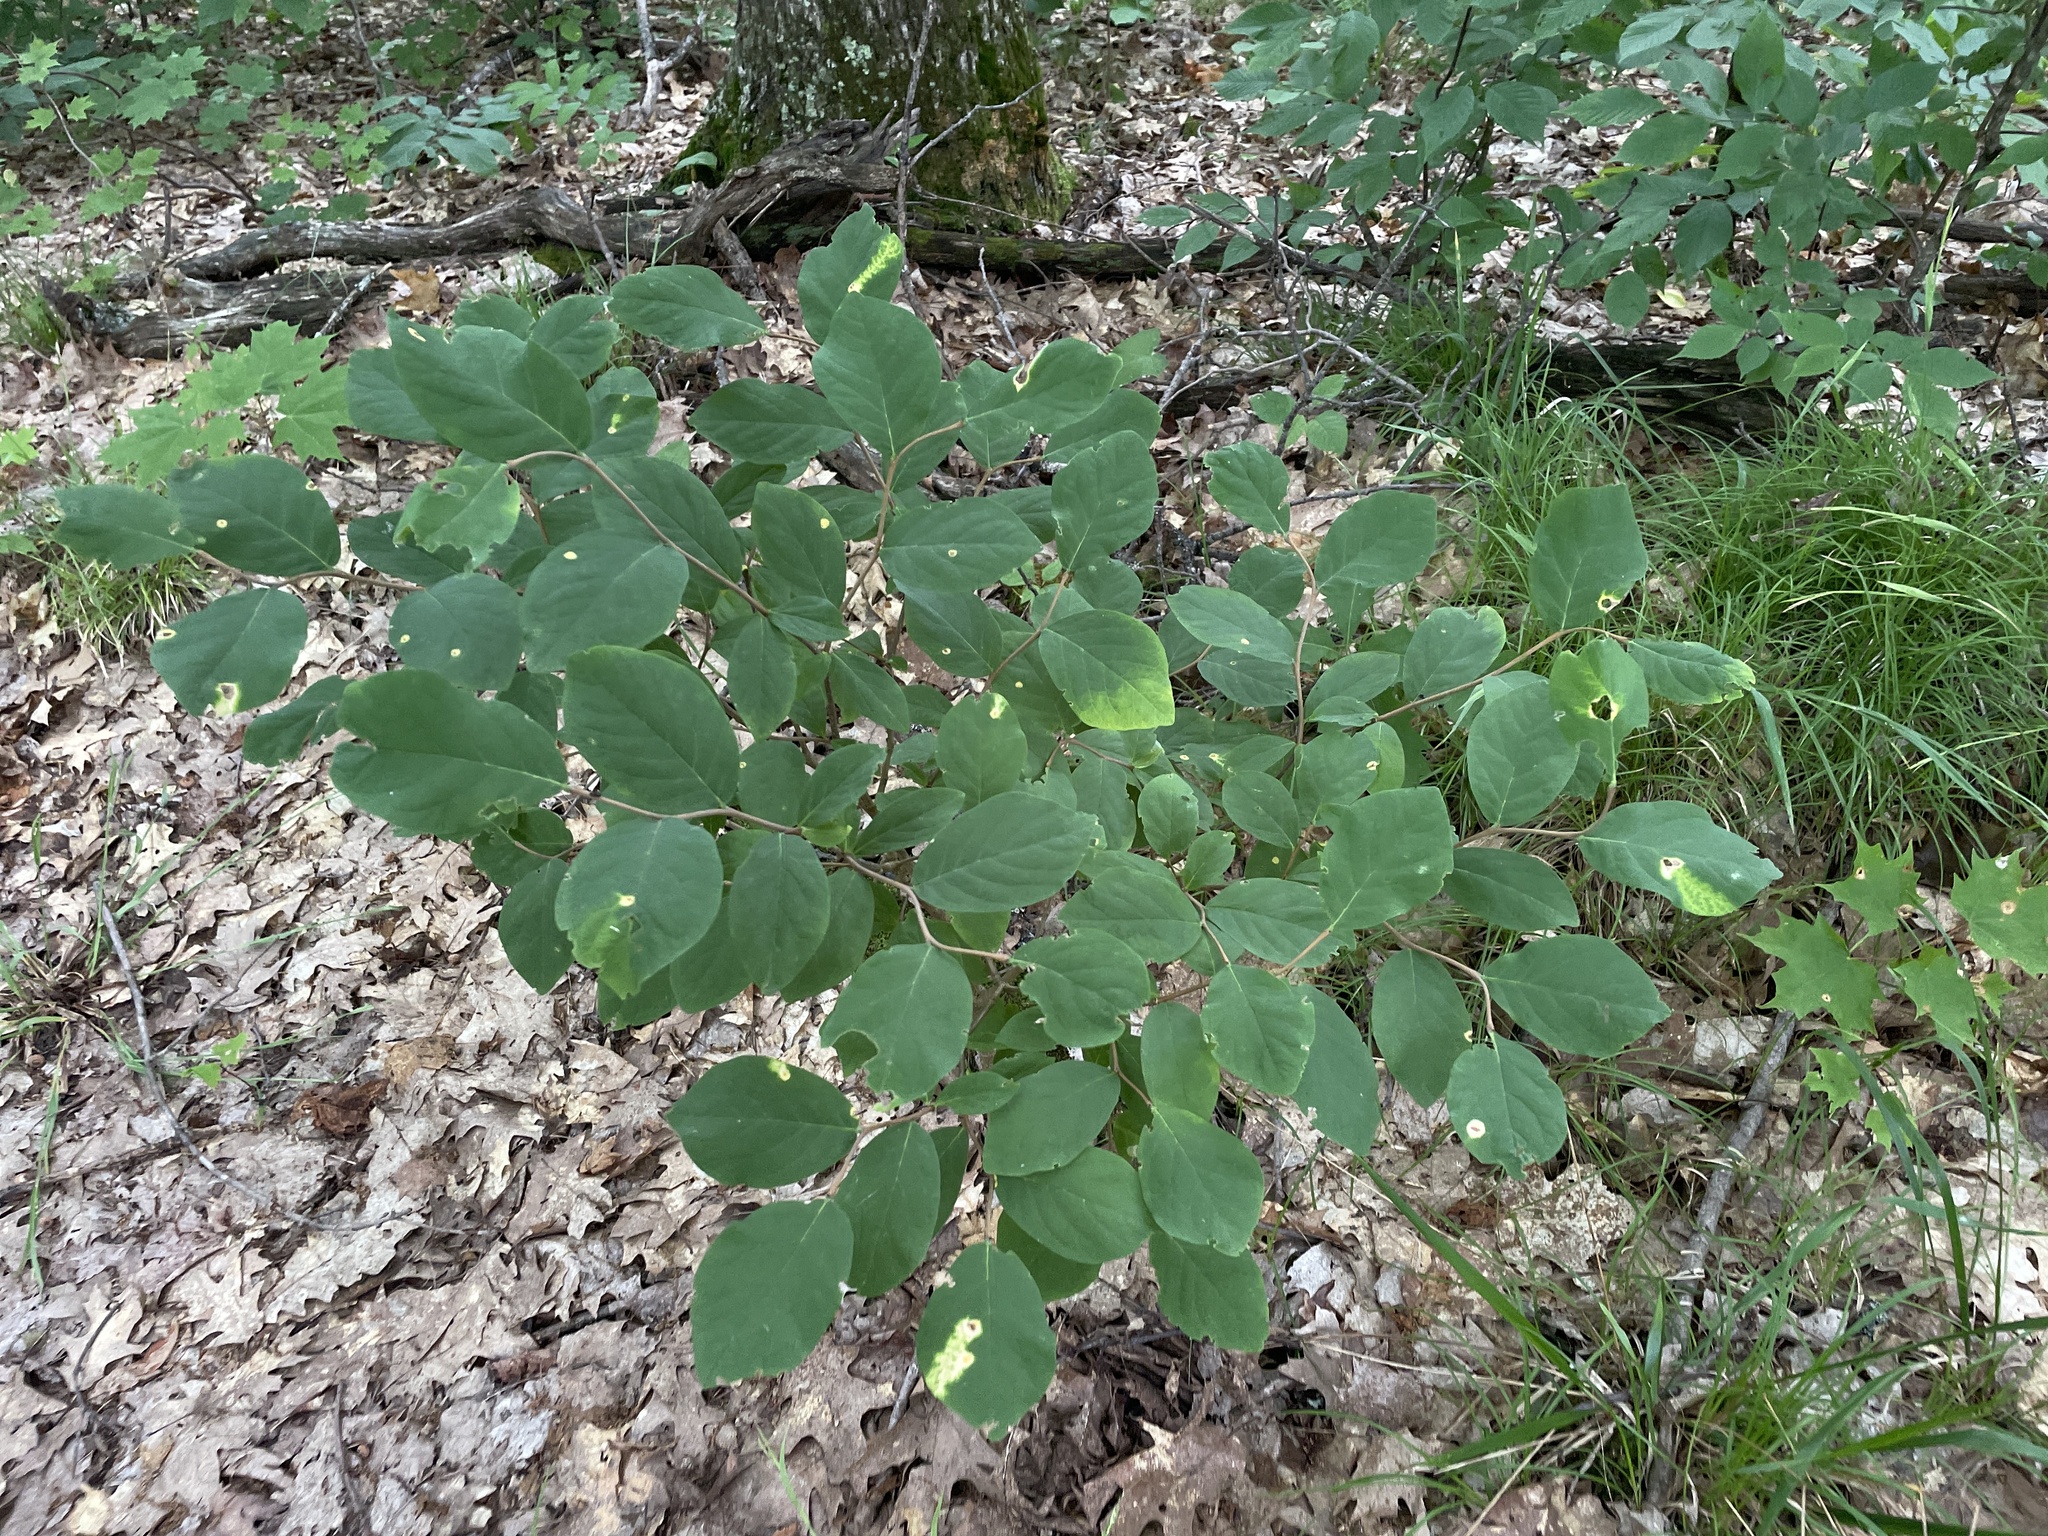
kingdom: Plantae
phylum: Tracheophyta
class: Magnoliopsida
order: Malvales
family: Thymelaeaceae
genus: Dirca
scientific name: Dirca palustris
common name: Leatherwood
